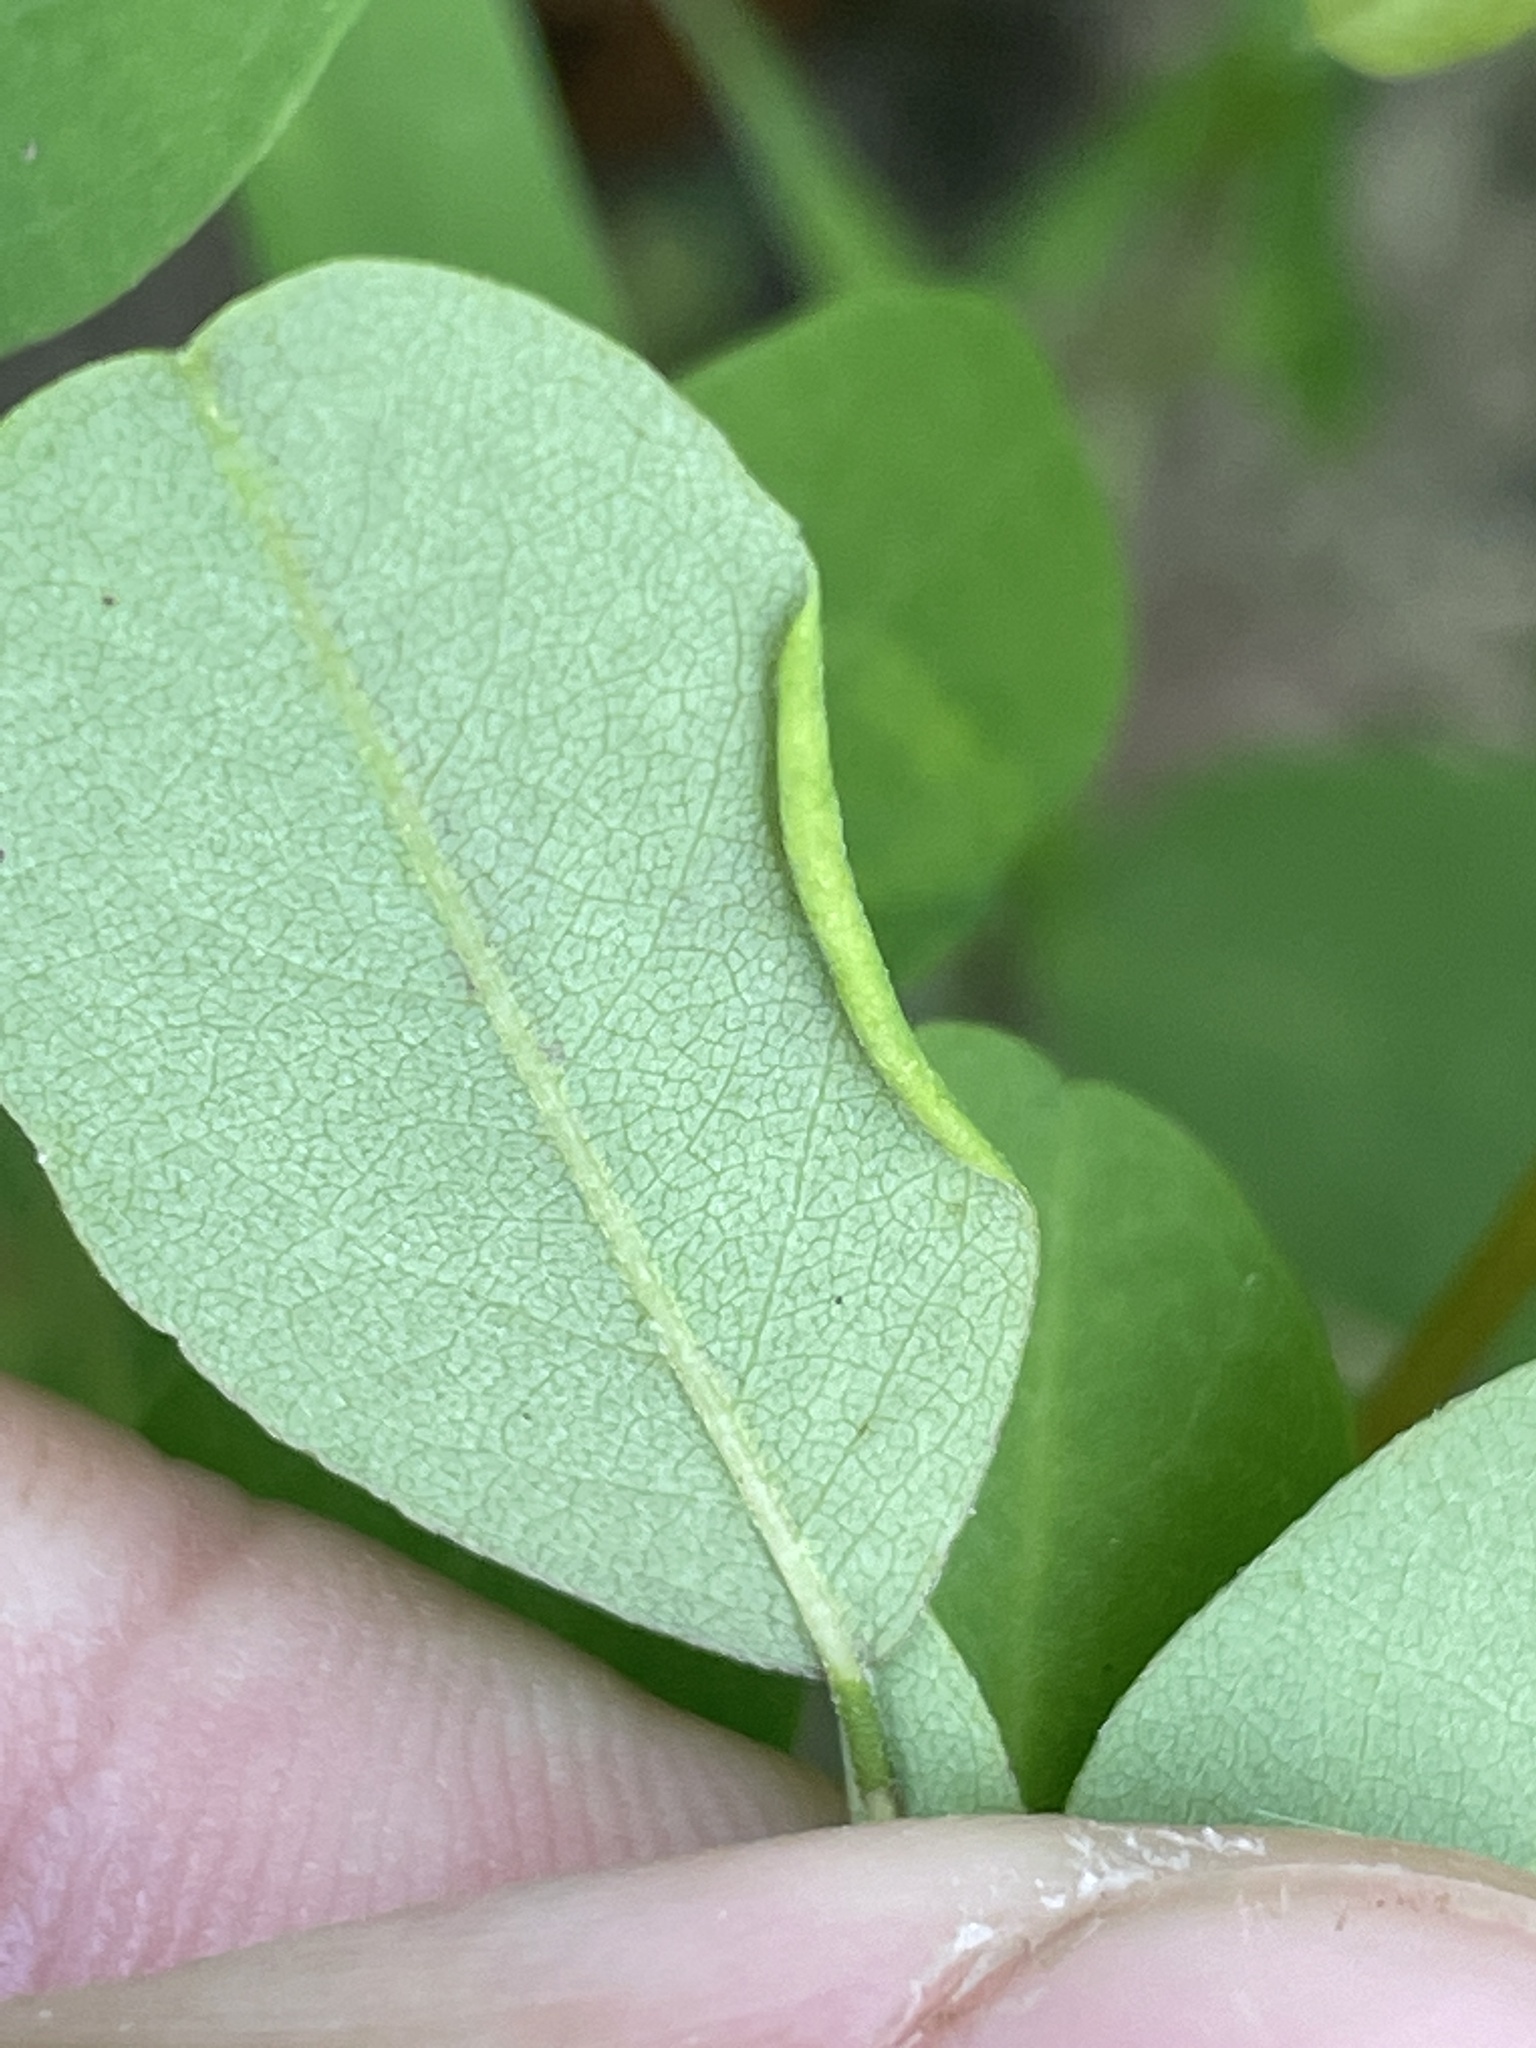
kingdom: Animalia
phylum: Arthropoda
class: Insecta
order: Diptera
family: Cecidomyiidae
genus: Obolodiplosis
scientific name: Obolodiplosis robiniae
